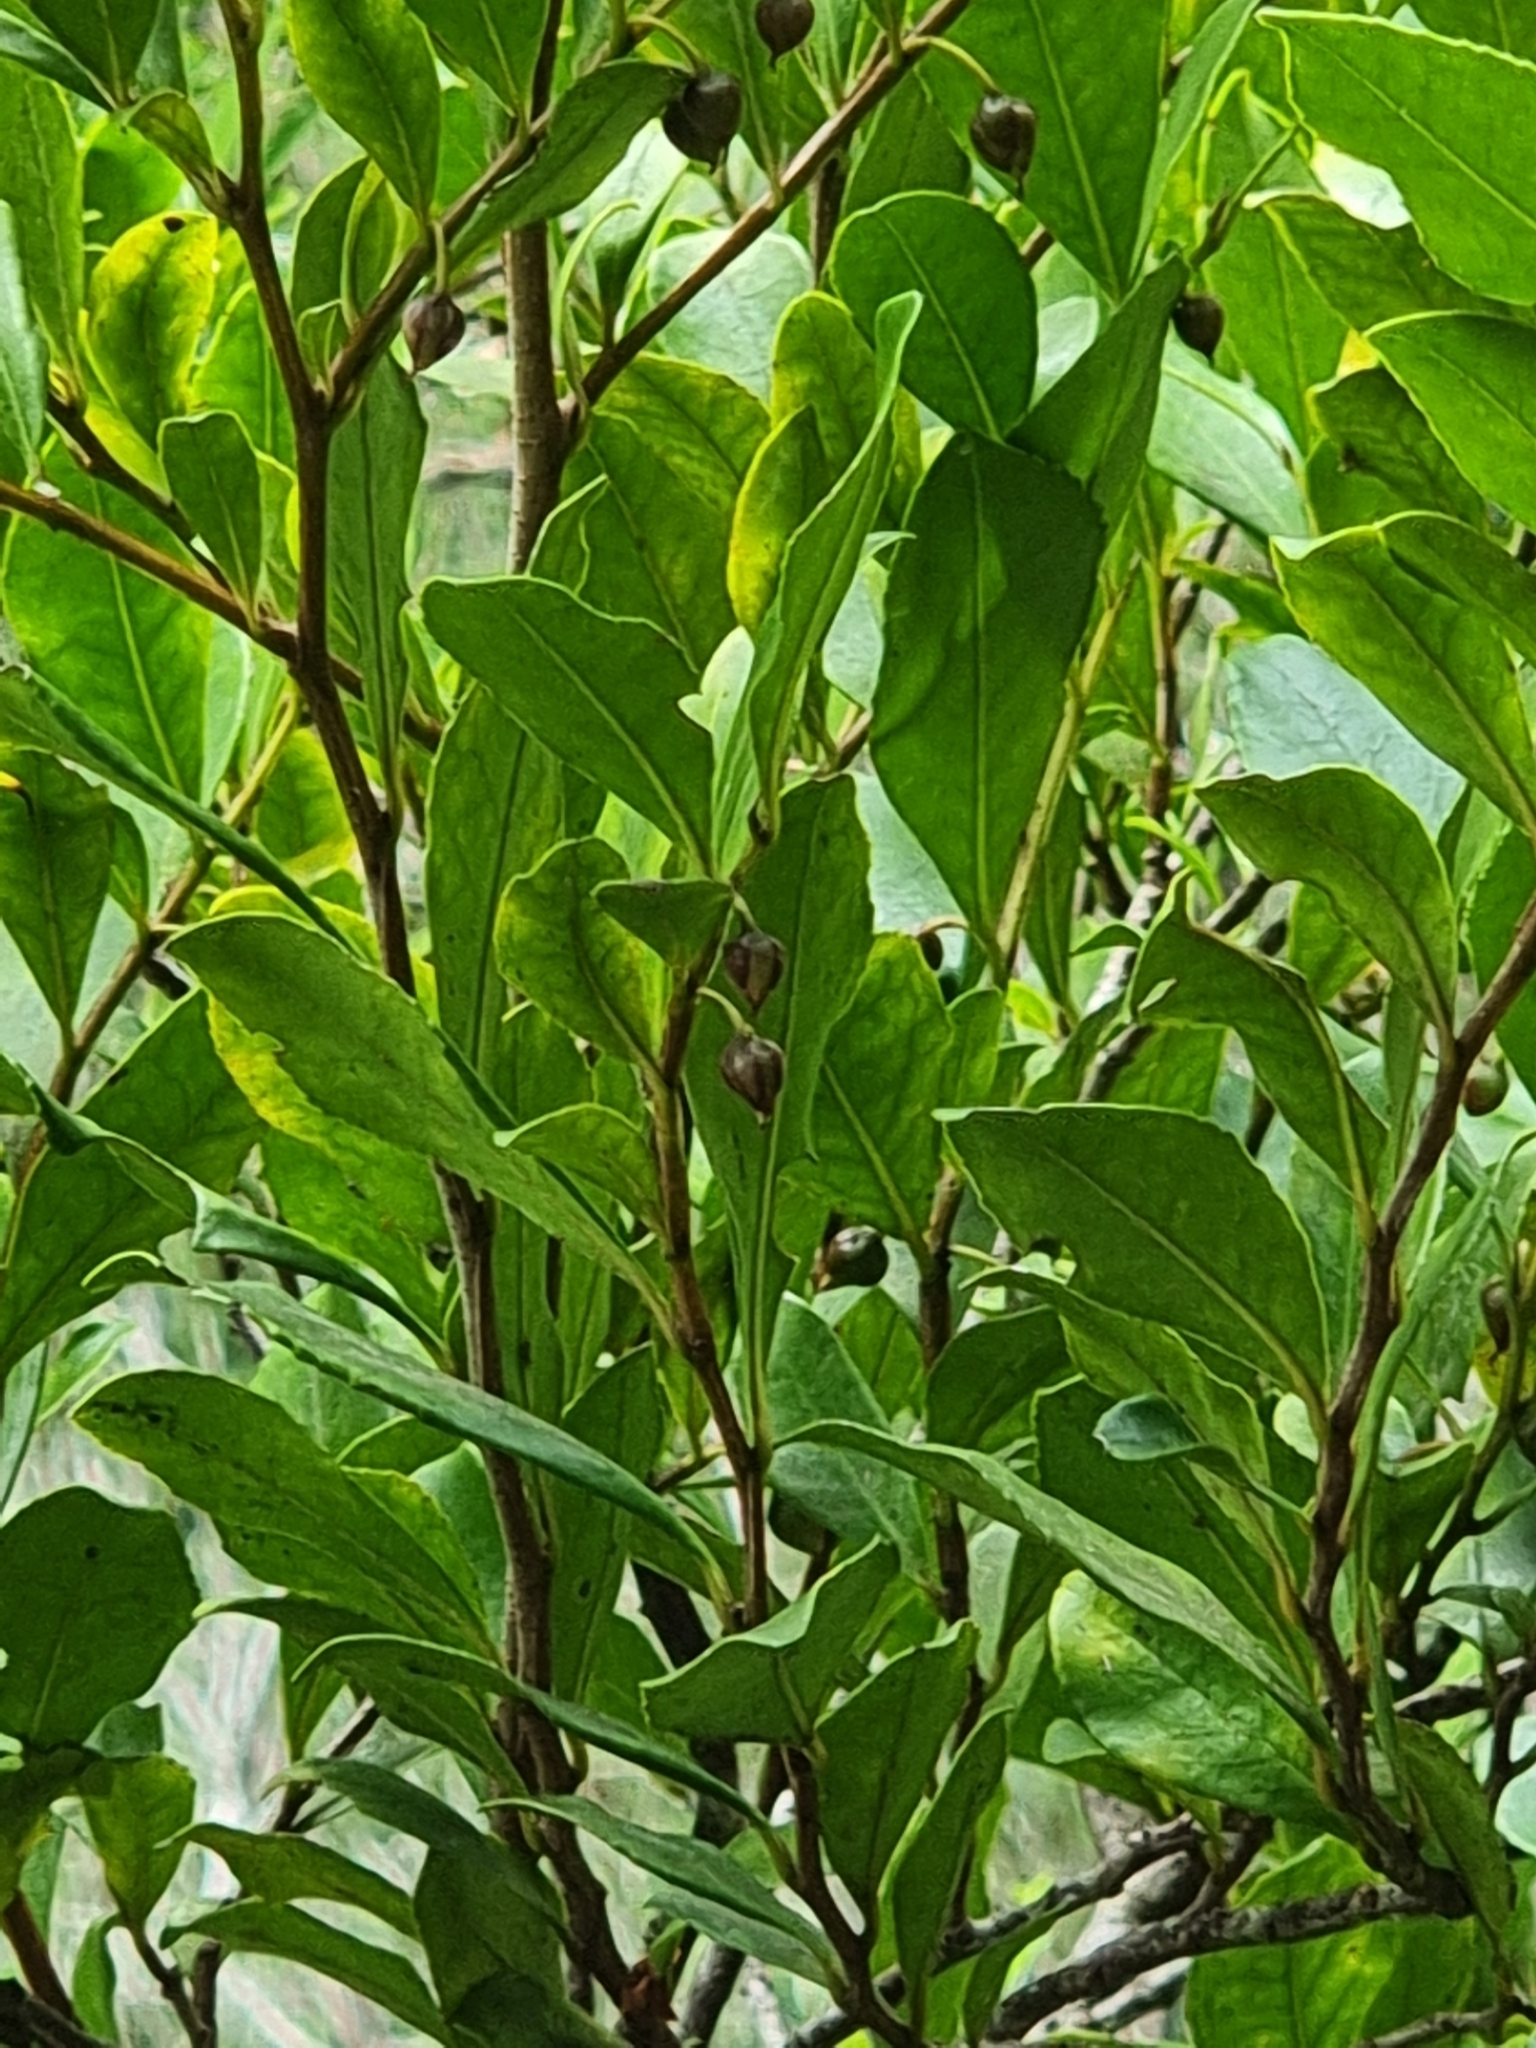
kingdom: Plantae
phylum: Tracheophyta
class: Magnoliopsida
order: Ericales
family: Pentaphylacaceae
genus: Visnea
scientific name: Visnea mocanera
